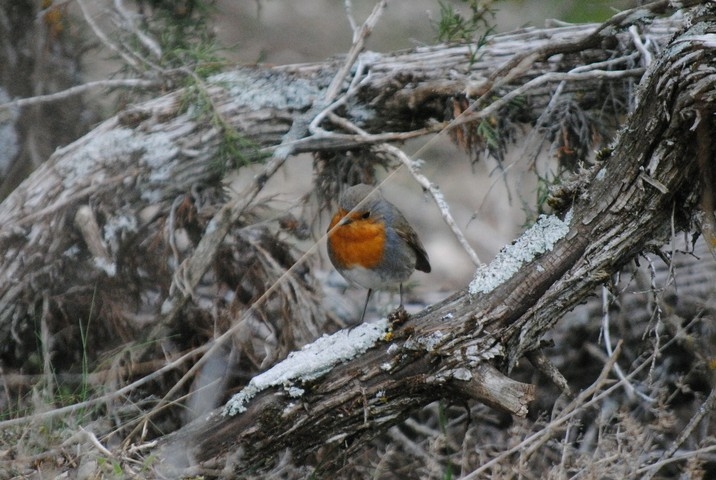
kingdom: Animalia
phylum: Chordata
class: Aves
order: Passeriformes
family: Muscicapidae
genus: Erithacus
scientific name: Erithacus rubecula
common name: European robin
